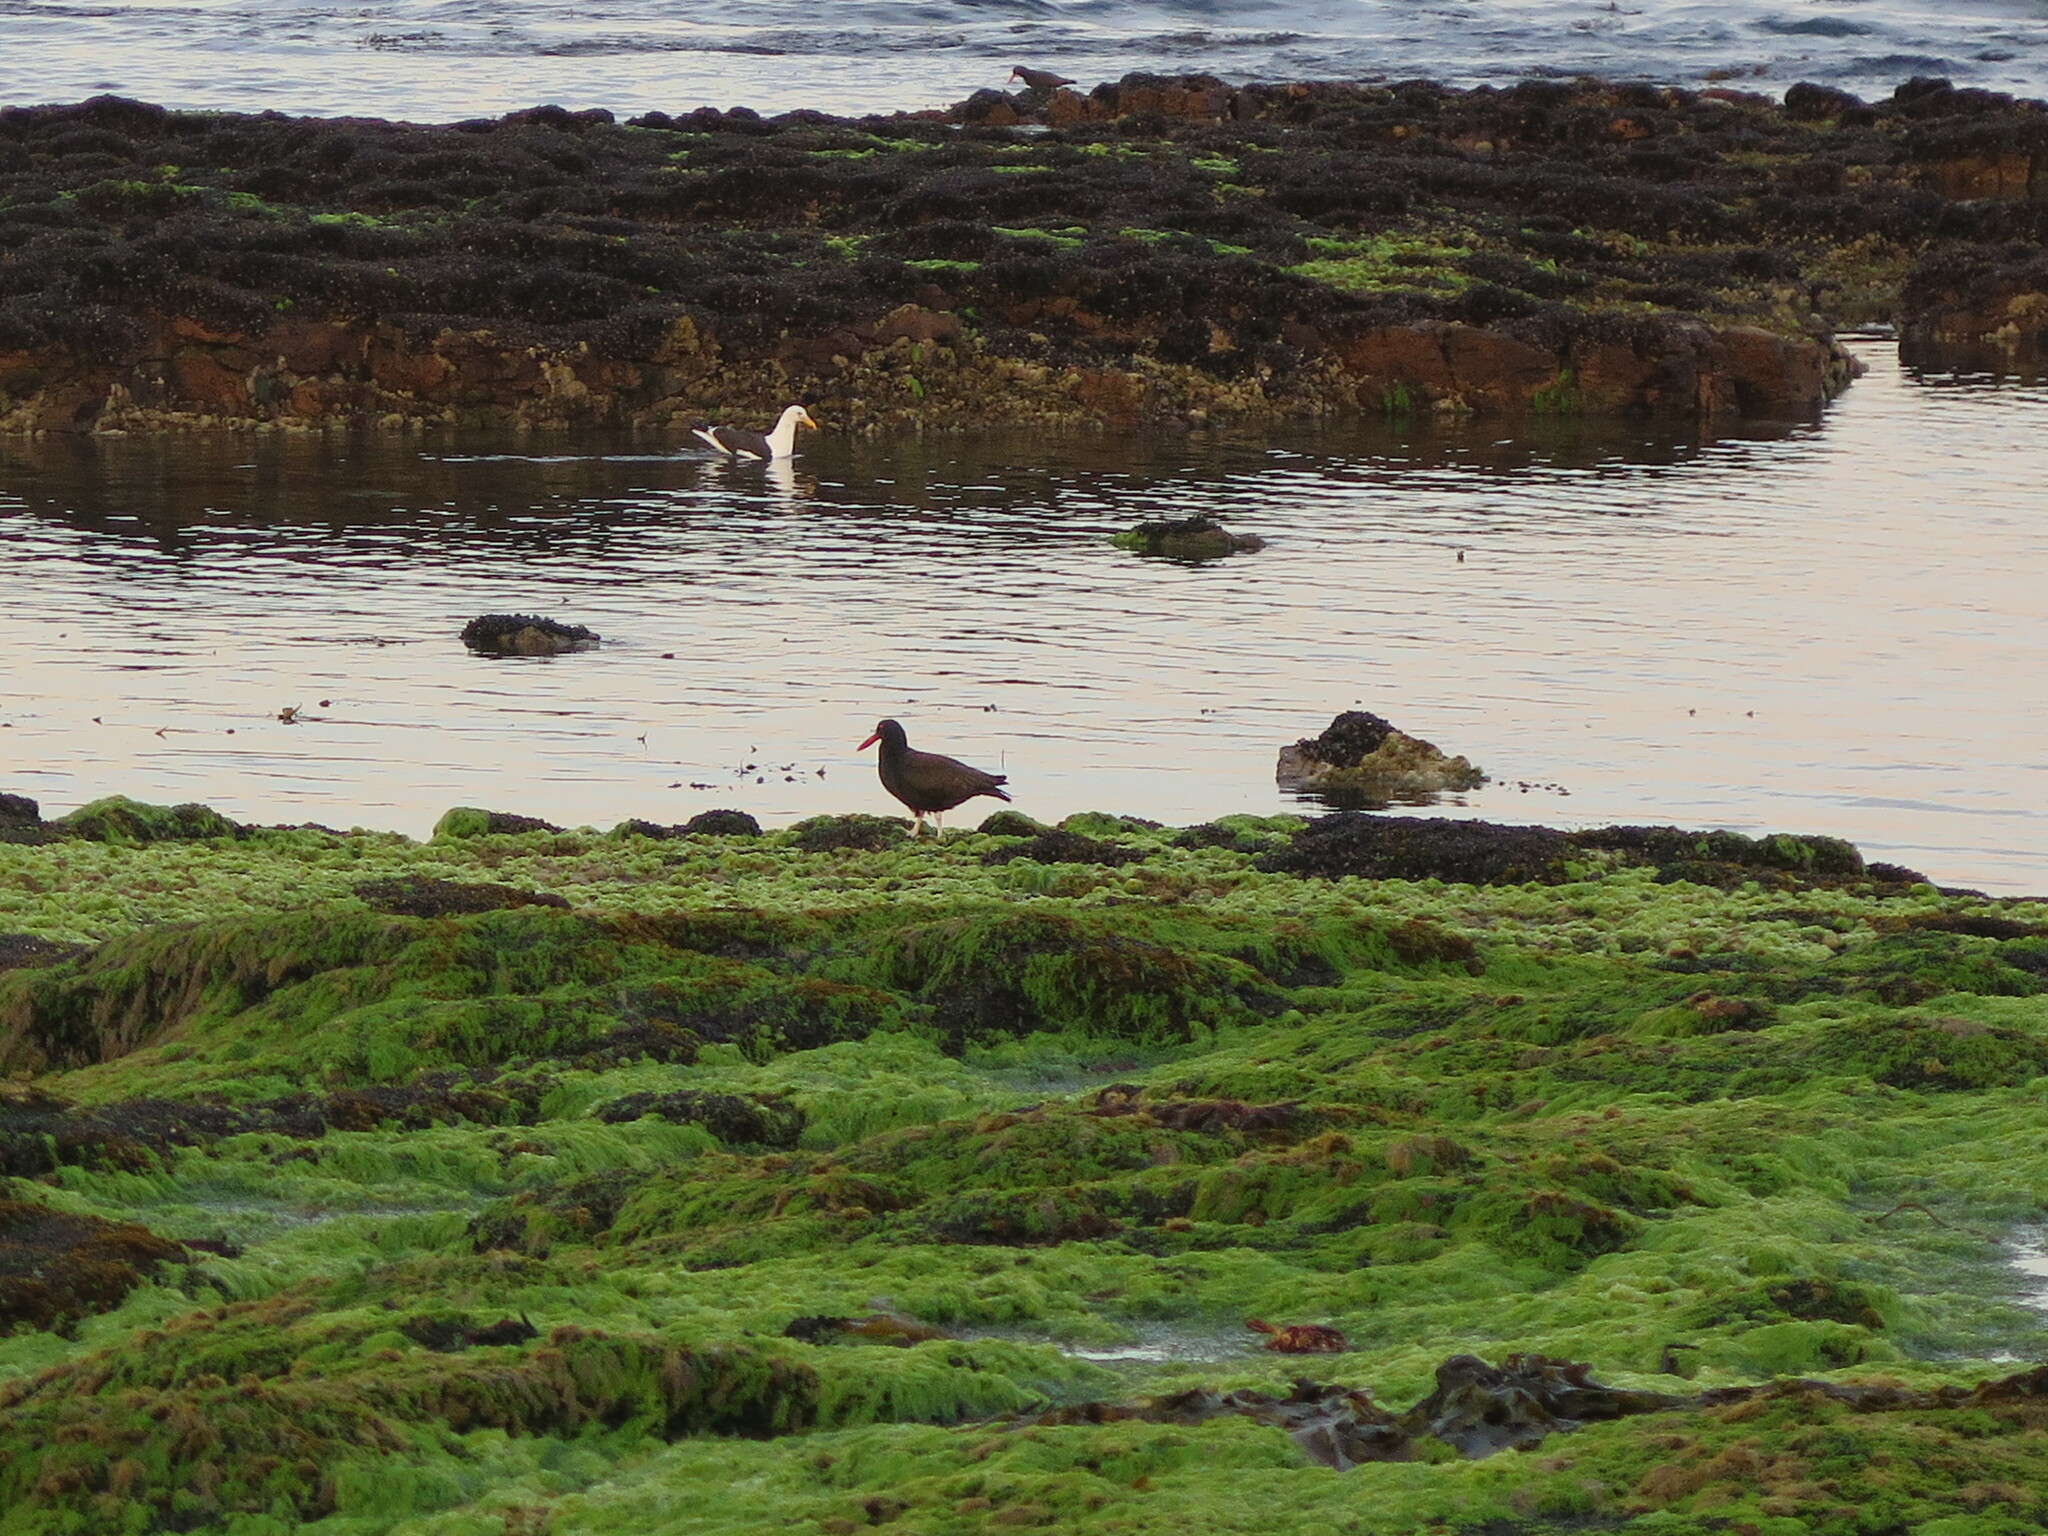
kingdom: Animalia
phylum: Chordata
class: Aves
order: Charadriiformes
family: Haematopodidae
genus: Haematopus
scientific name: Haematopus ater
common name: Blackish oystercatcher
